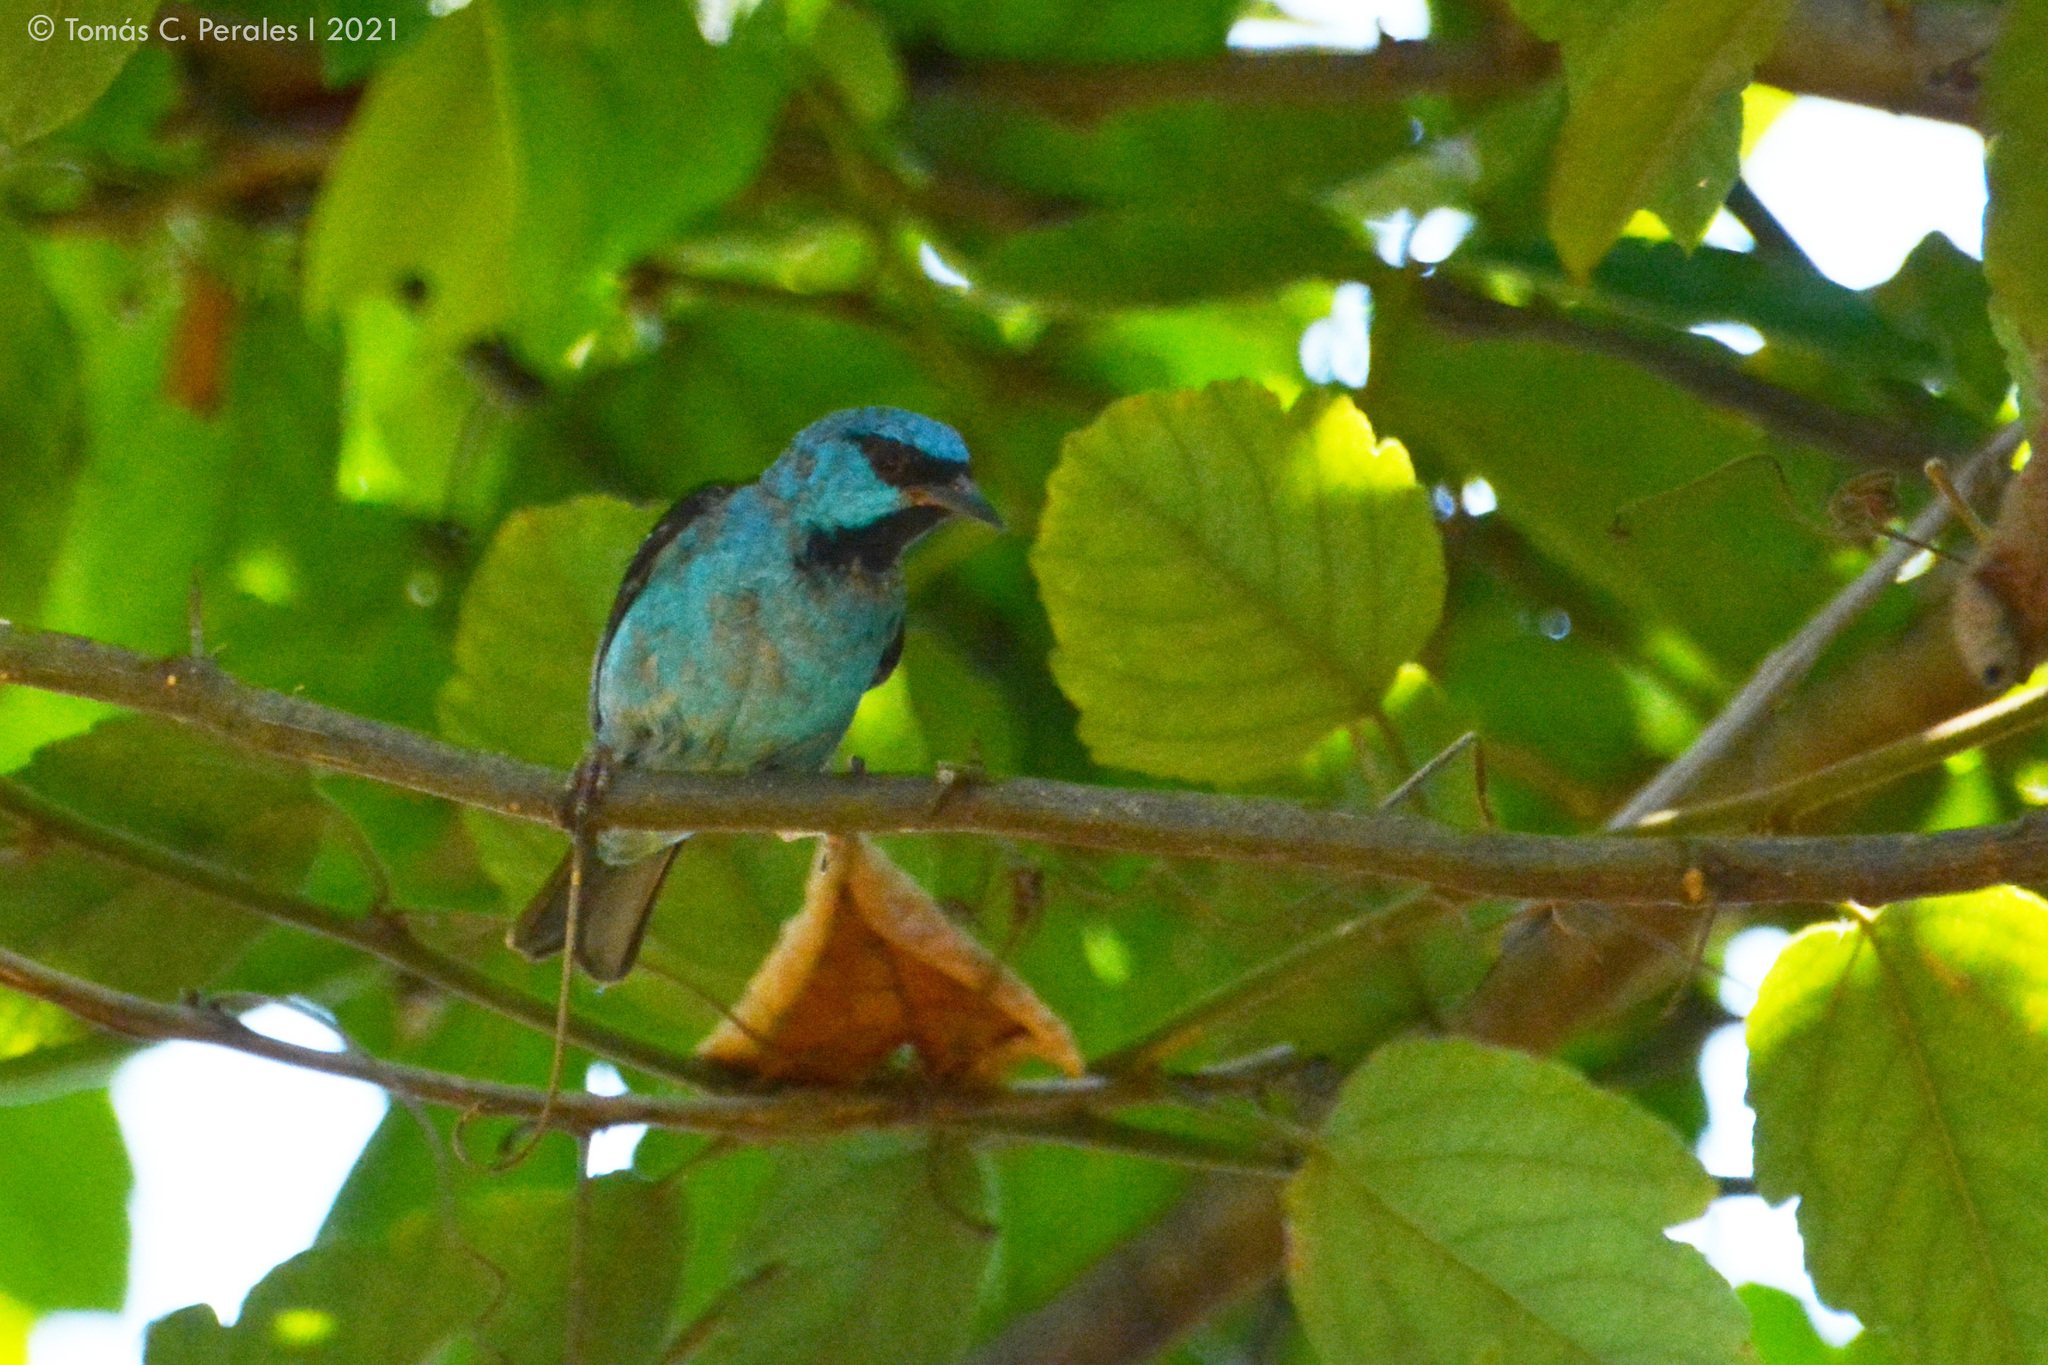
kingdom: Animalia
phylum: Chordata
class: Aves
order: Passeriformes
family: Thraupidae
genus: Dacnis
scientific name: Dacnis cayana
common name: Blue dacnis
